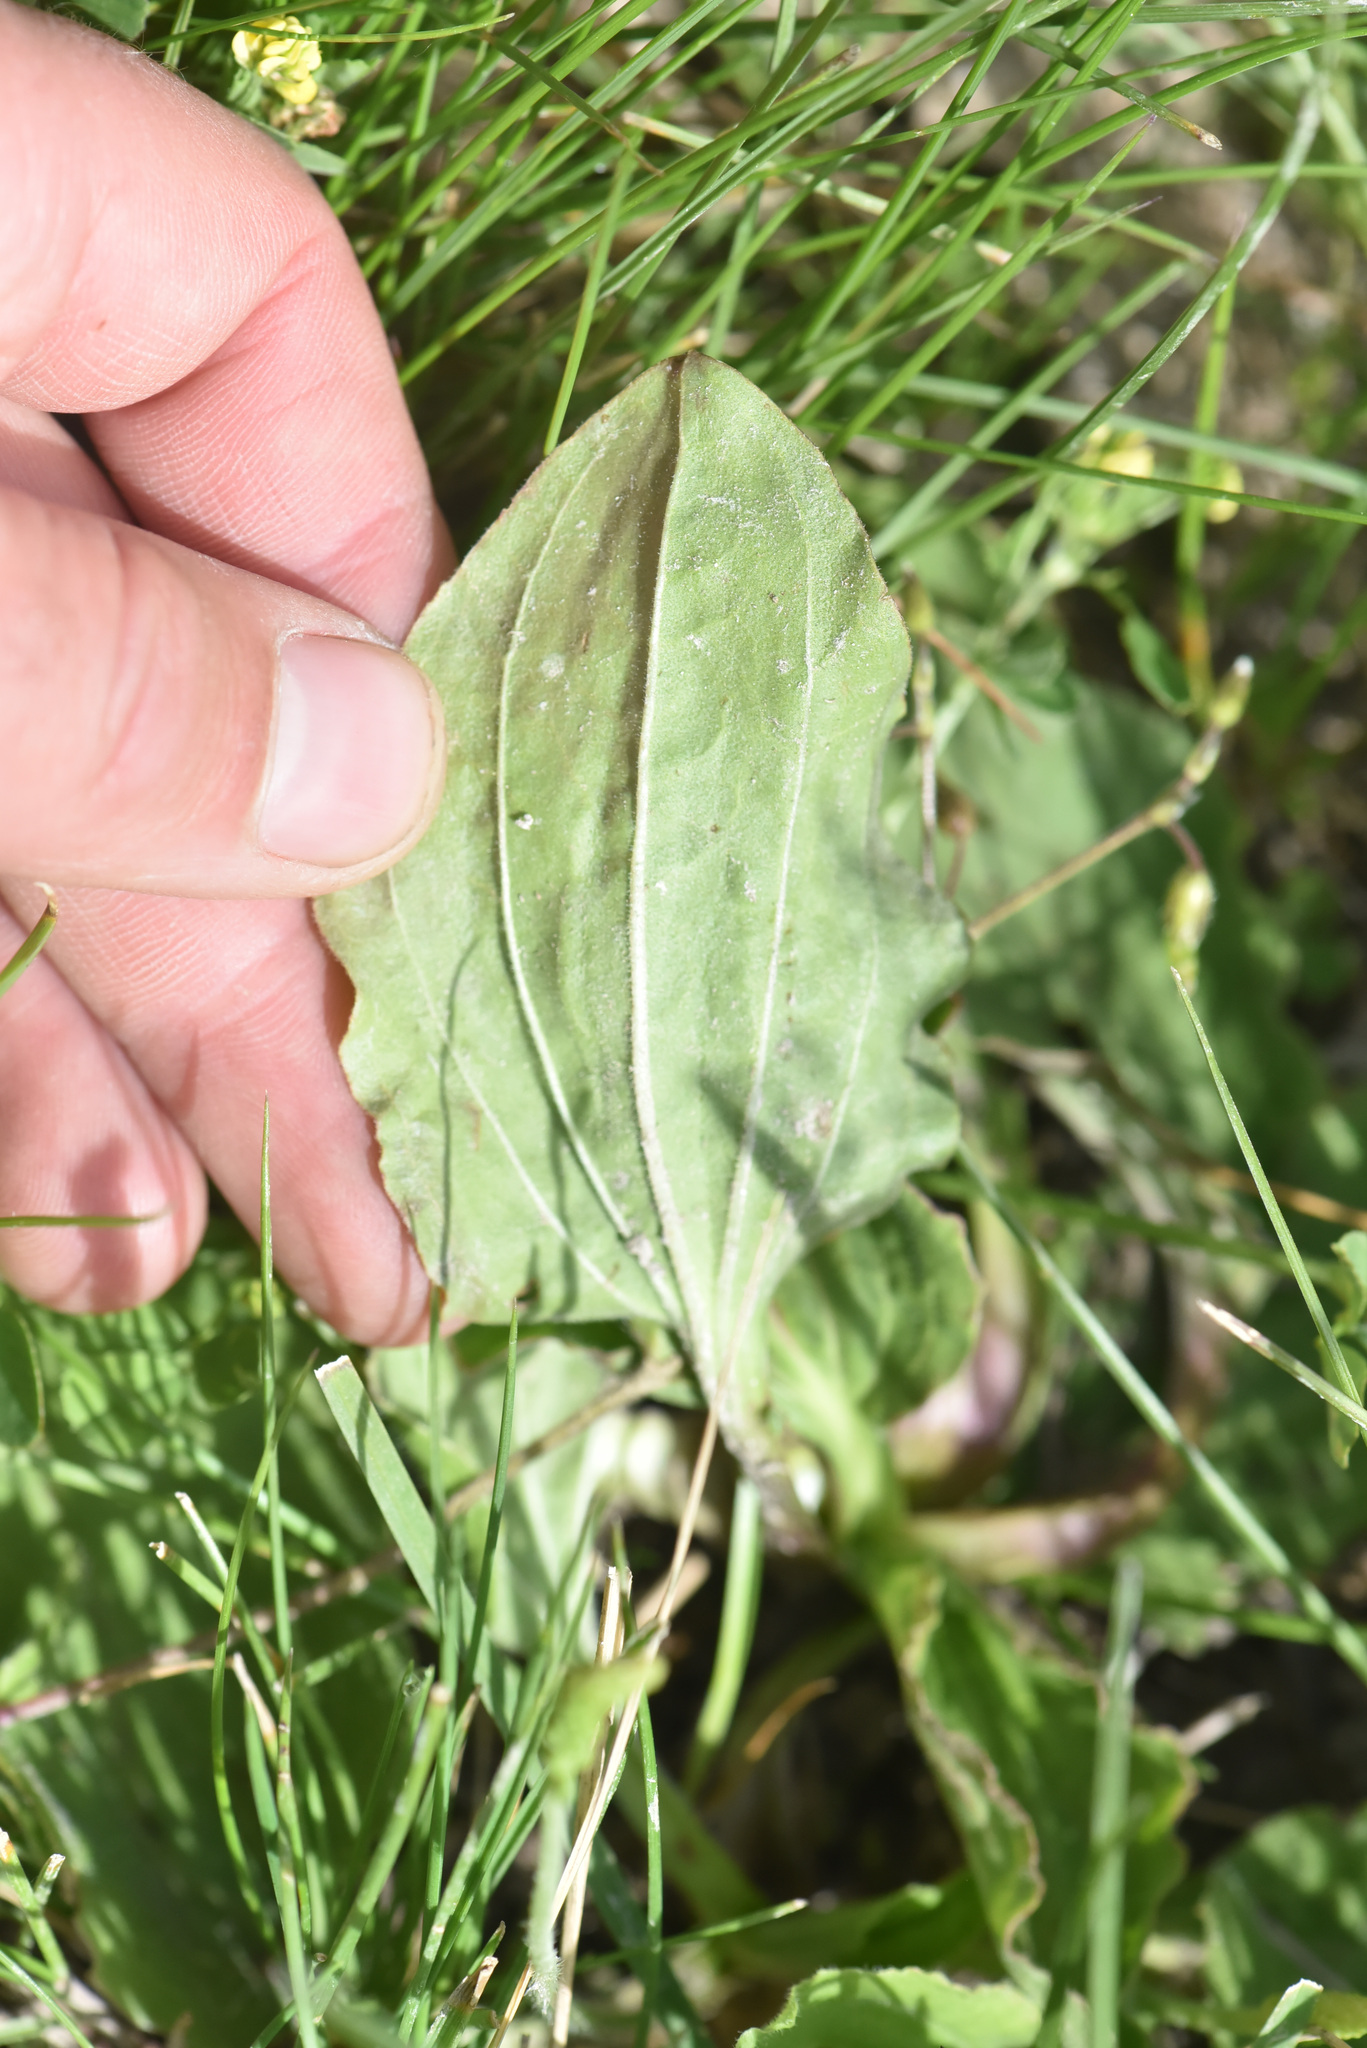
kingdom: Plantae
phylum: Tracheophyta
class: Magnoliopsida
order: Lamiales
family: Plantaginaceae
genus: Plantago
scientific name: Plantago major
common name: Common plantain
